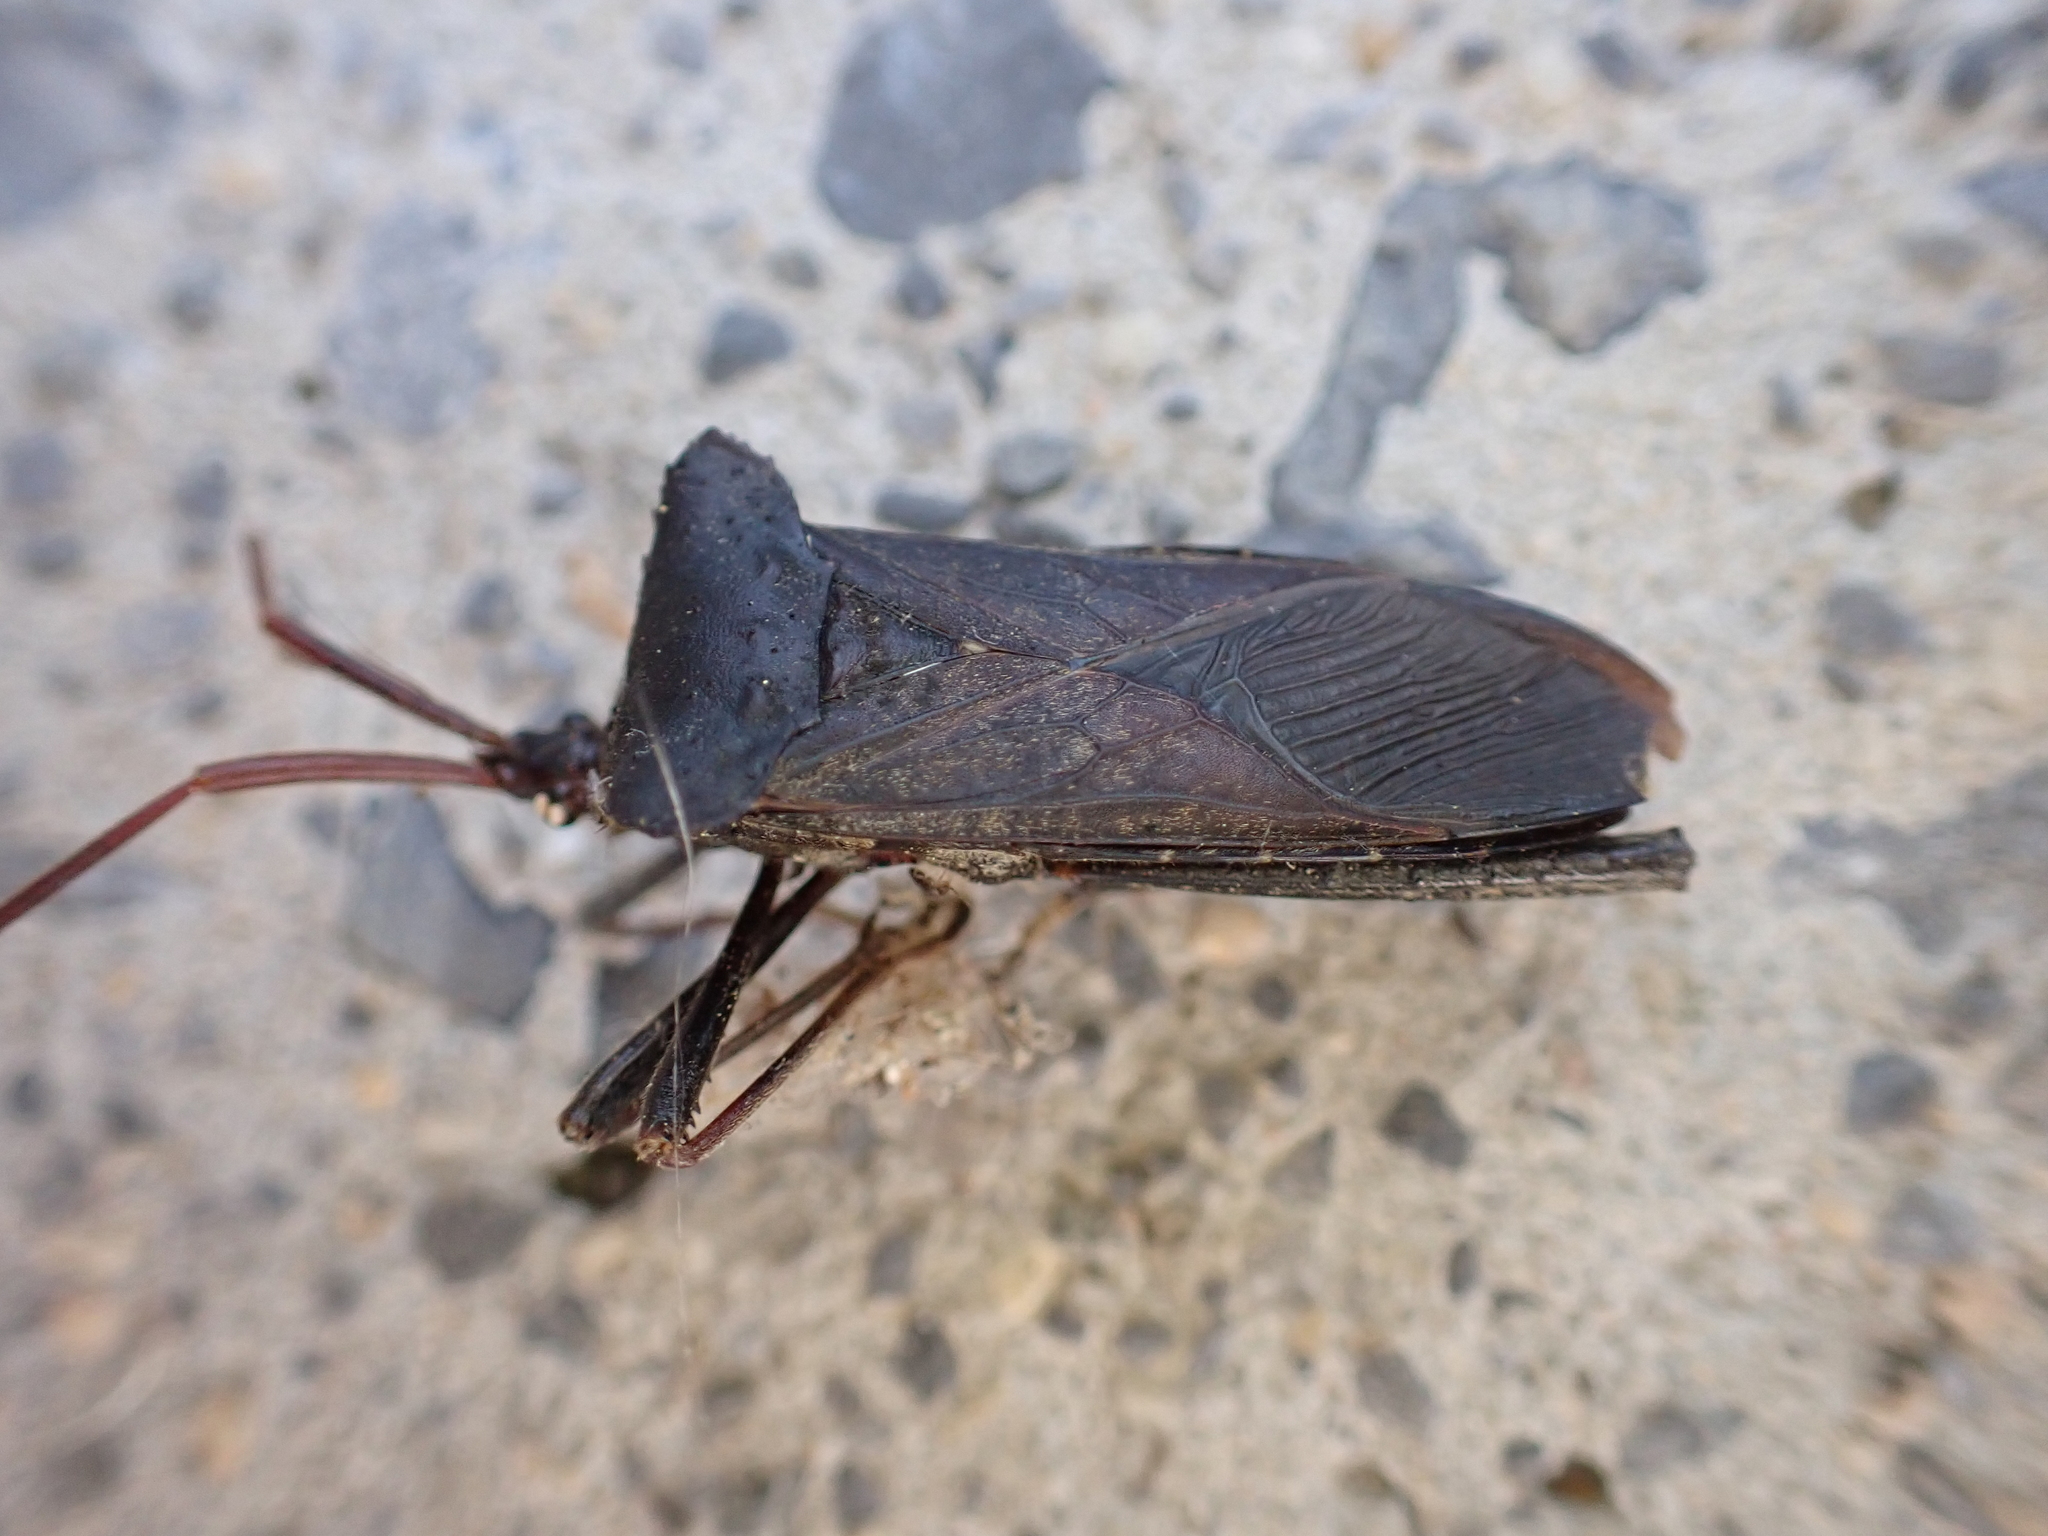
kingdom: Animalia
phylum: Arthropoda
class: Insecta
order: Hemiptera
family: Coreidae
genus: Acanthocephala
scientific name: Acanthocephala declivis
